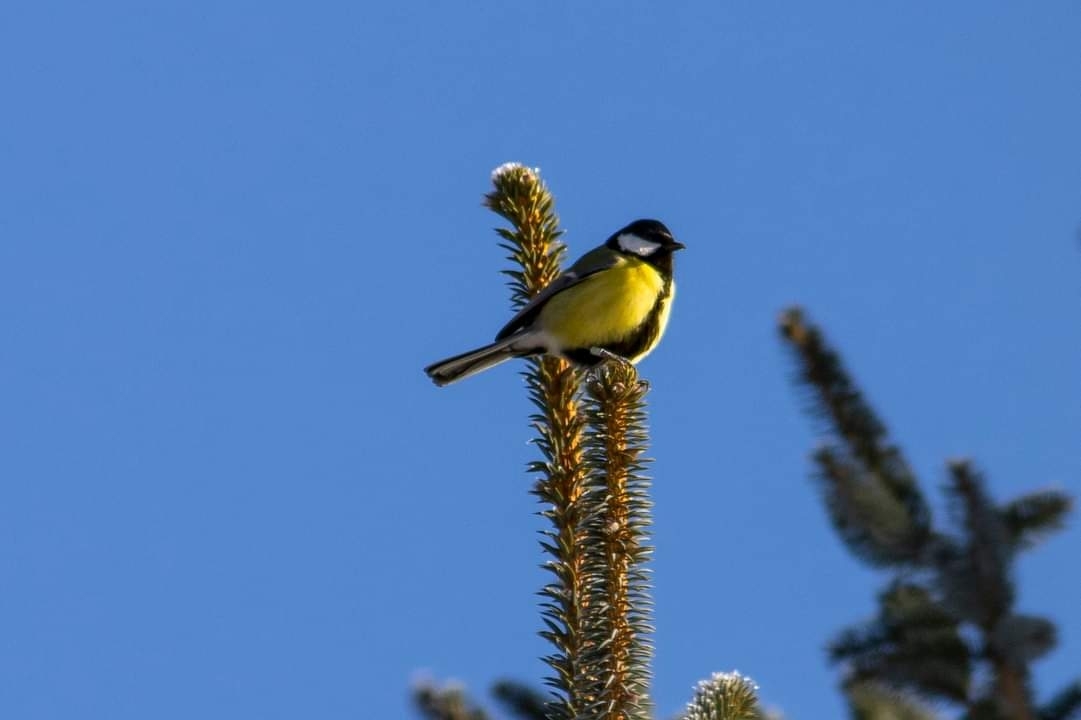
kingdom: Animalia
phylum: Chordata
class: Aves
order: Passeriformes
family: Paridae
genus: Parus
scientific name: Parus major
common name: Great tit
